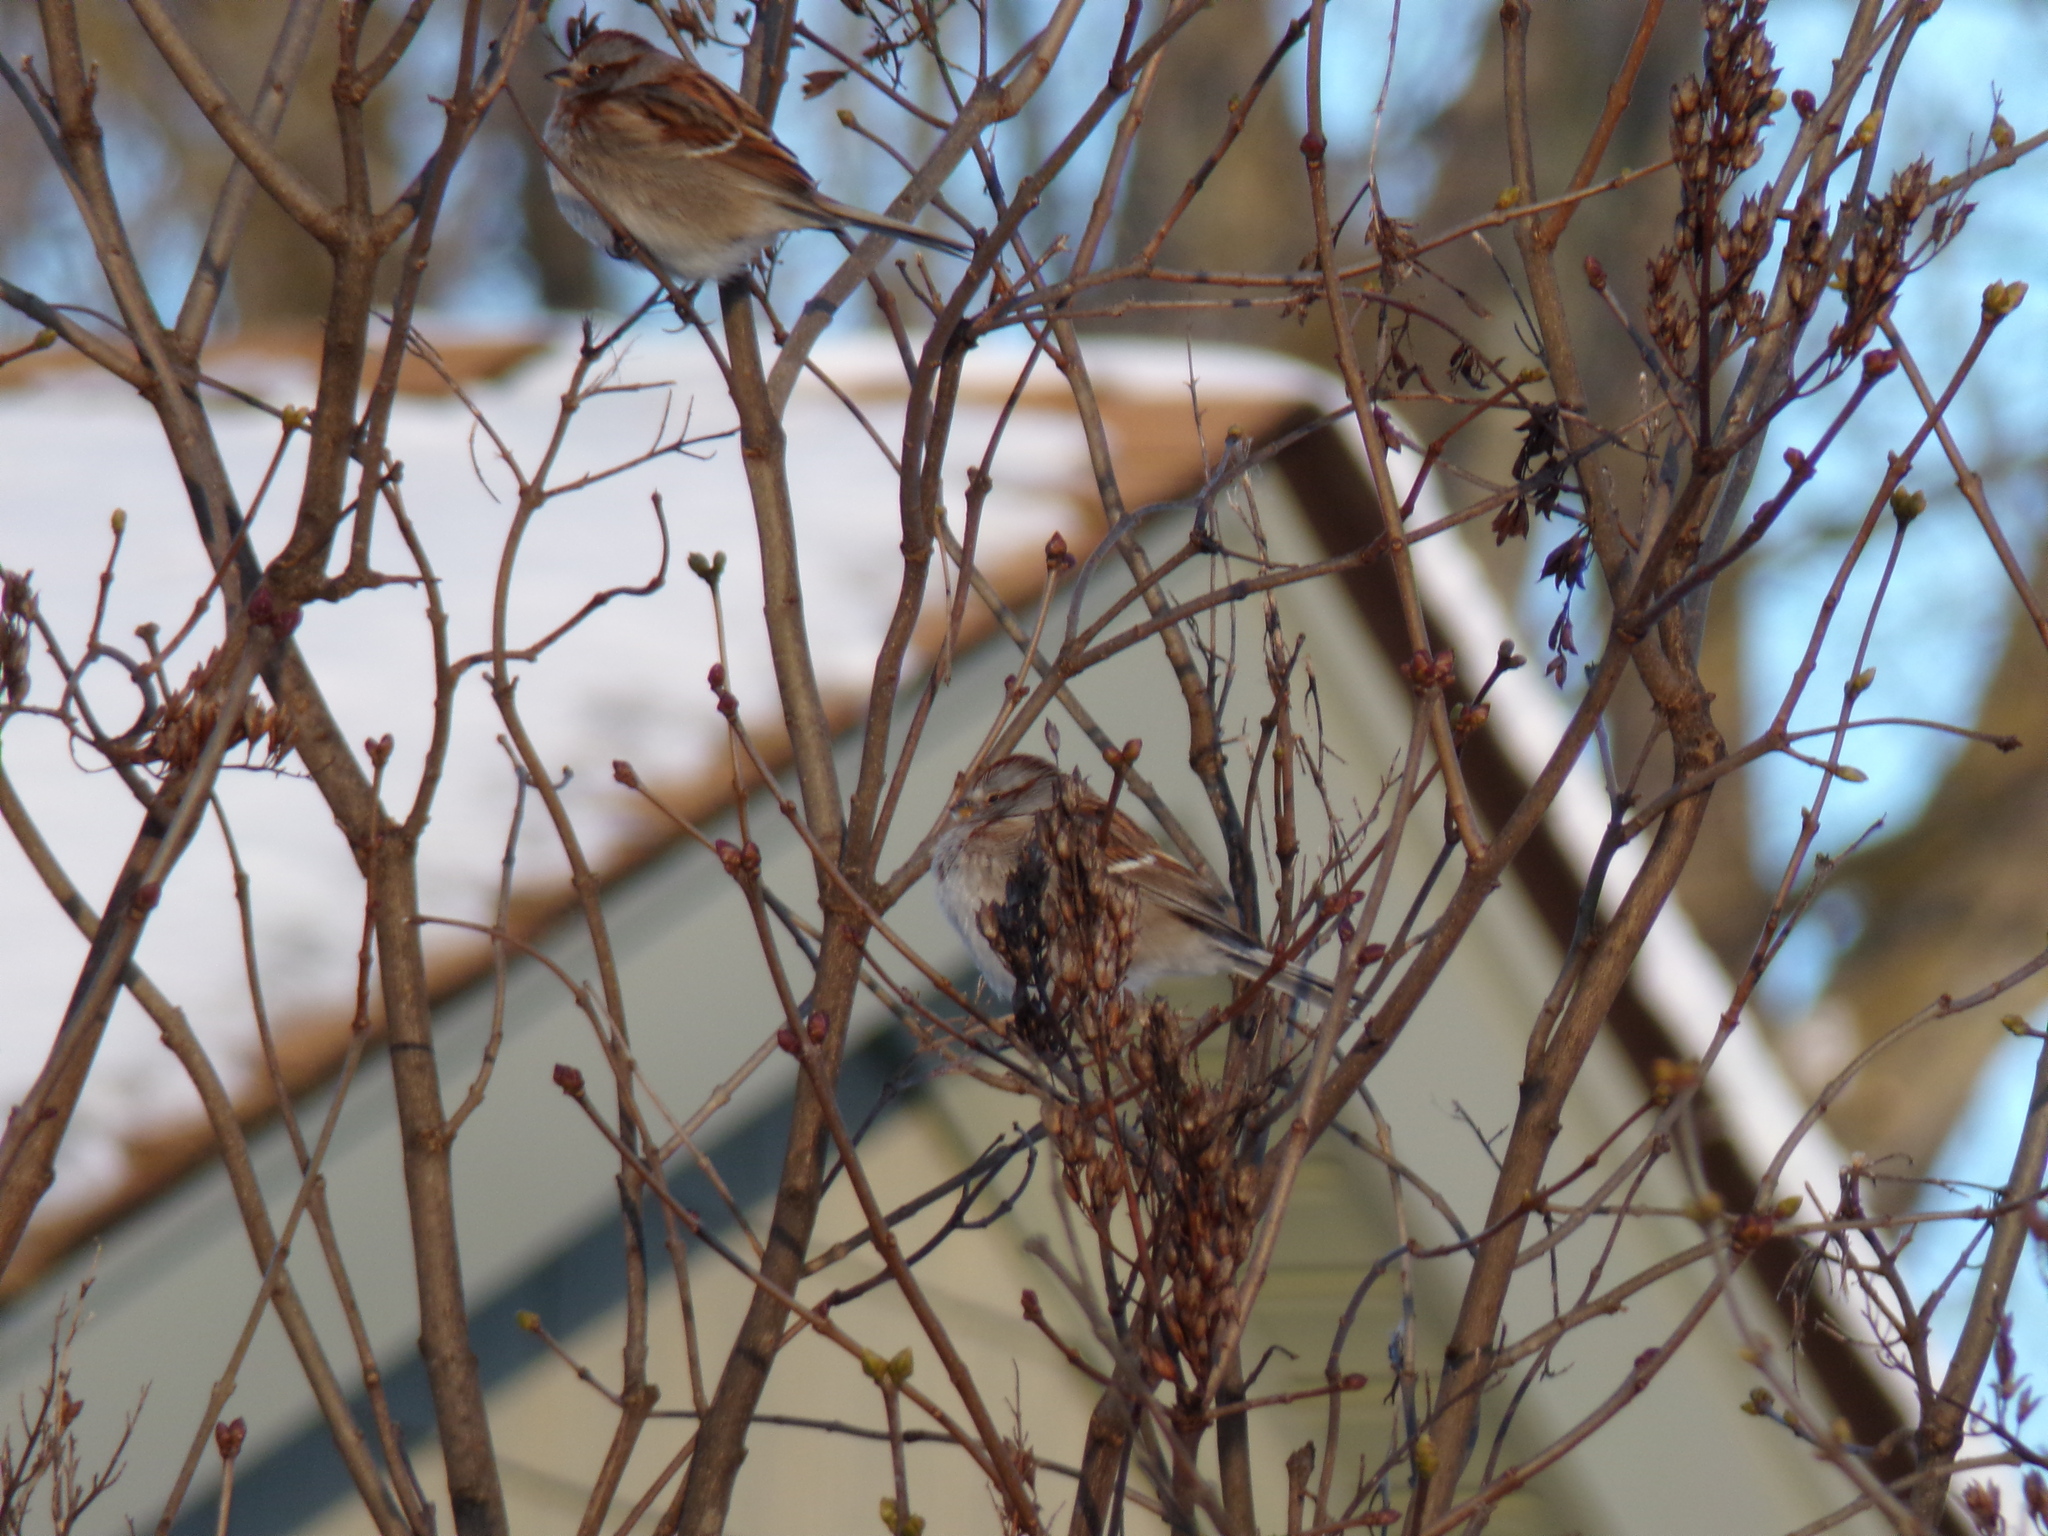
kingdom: Animalia
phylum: Chordata
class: Aves
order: Passeriformes
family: Passerellidae
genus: Spizelloides
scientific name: Spizelloides arborea
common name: American tree sparrow
